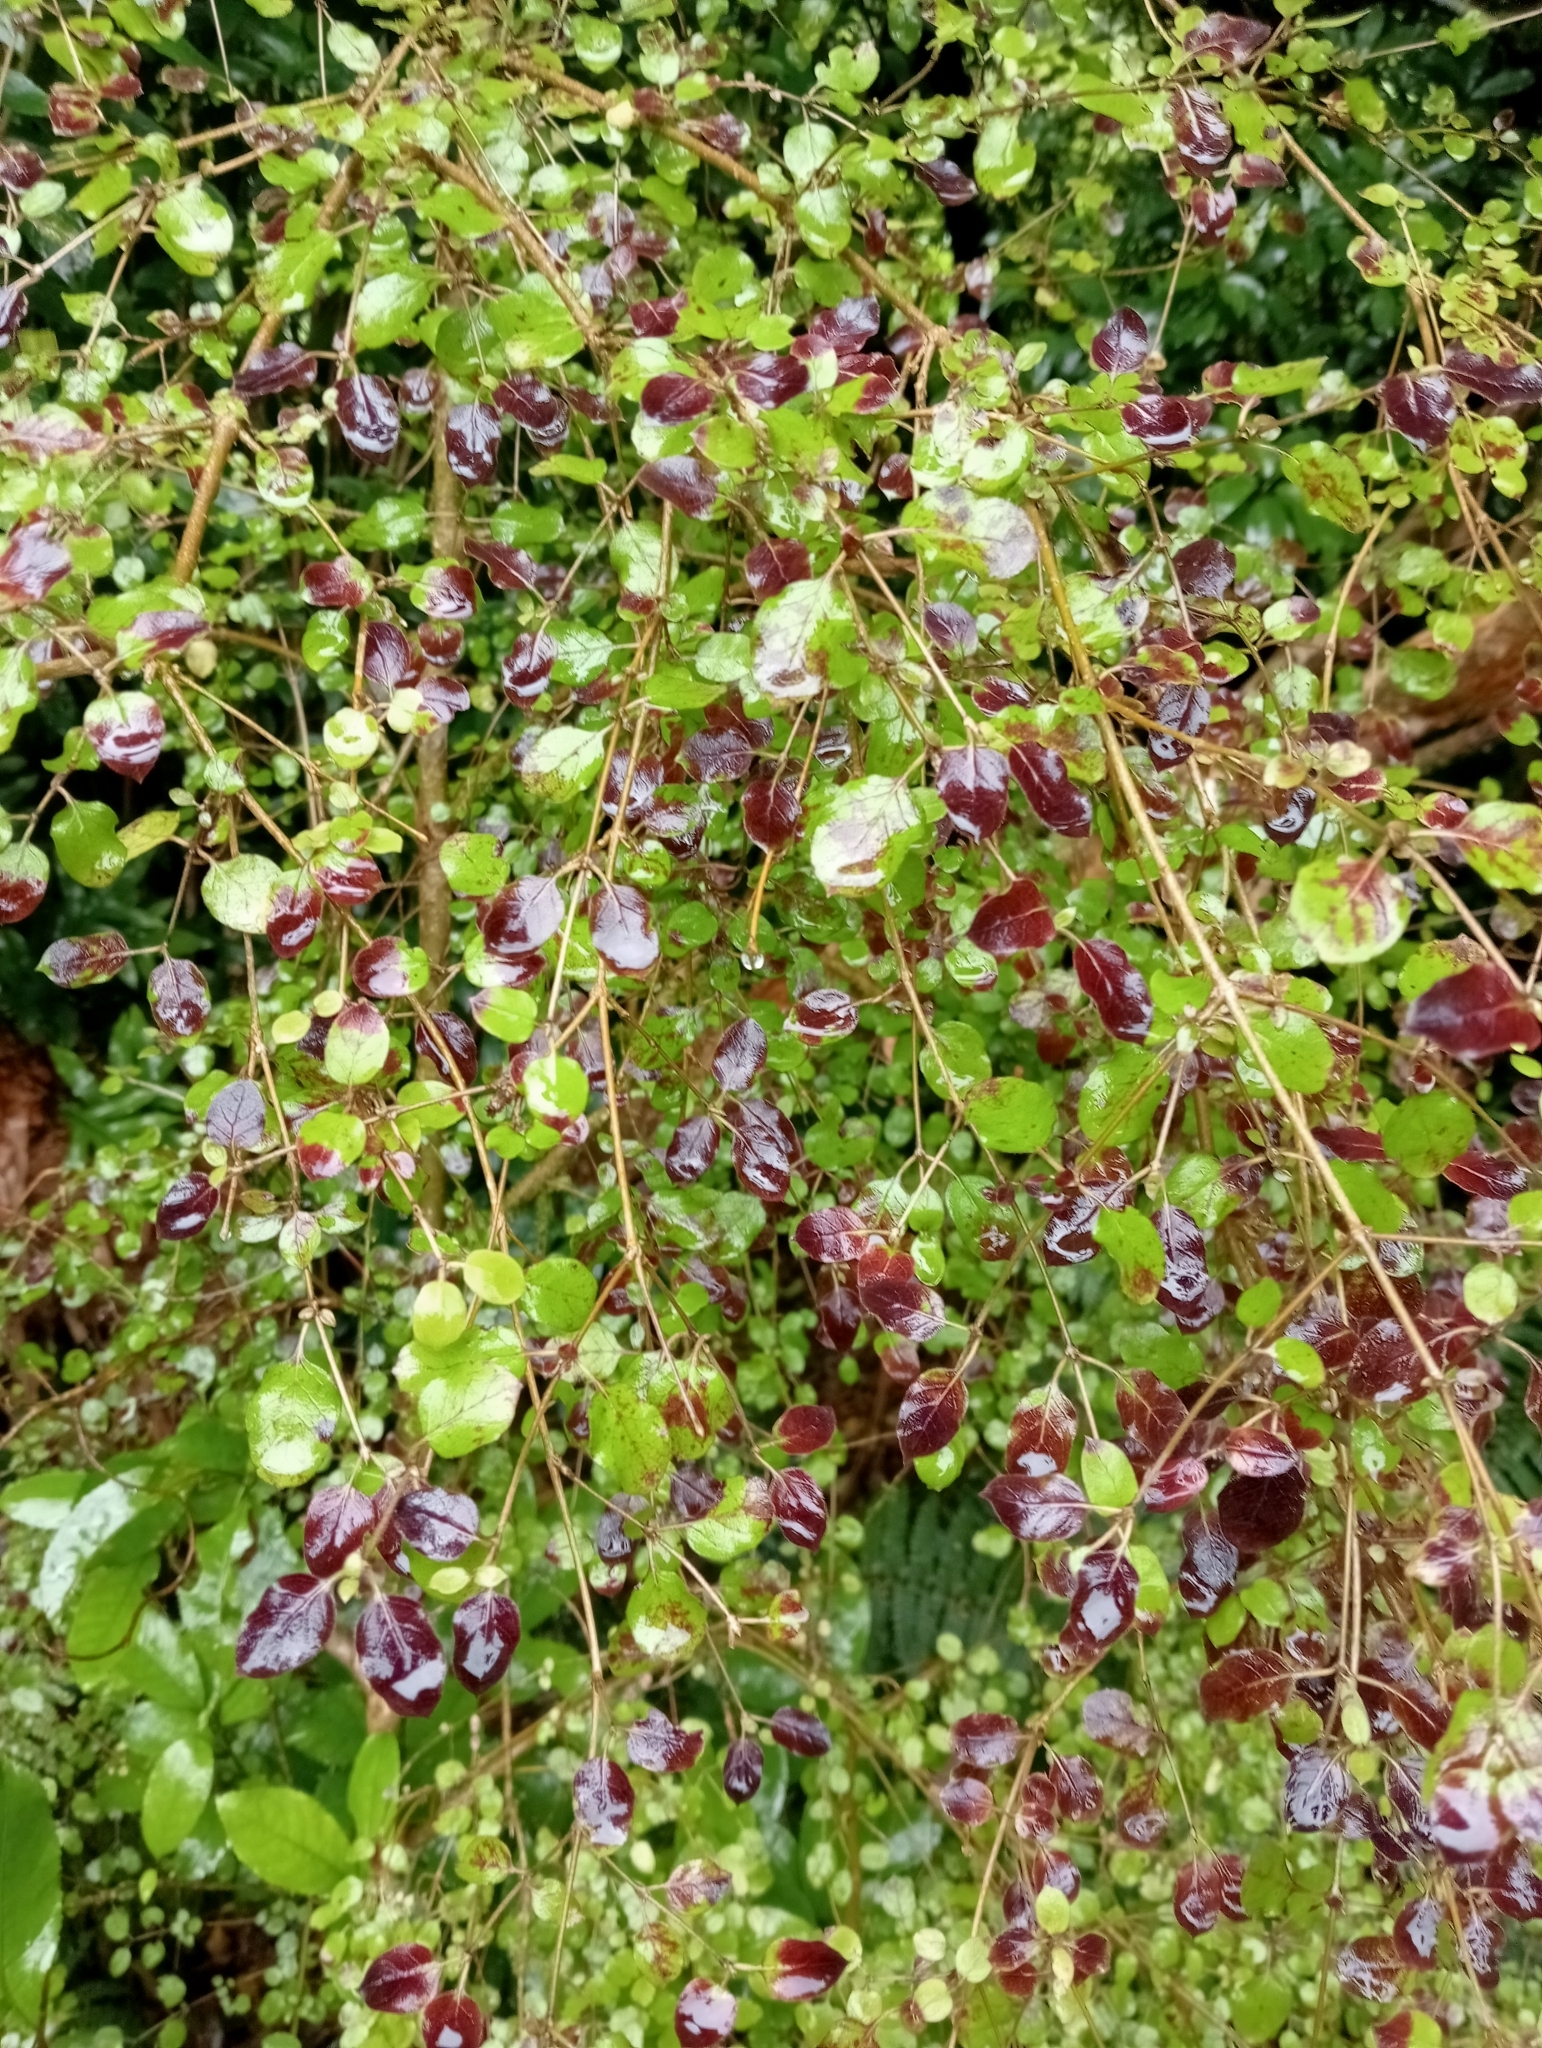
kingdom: Plantae
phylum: Tracheophyta
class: Magnoliopsida
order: Gentianales
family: Rubiaceae
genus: Coprosma
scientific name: Coprosma rotundifolia
